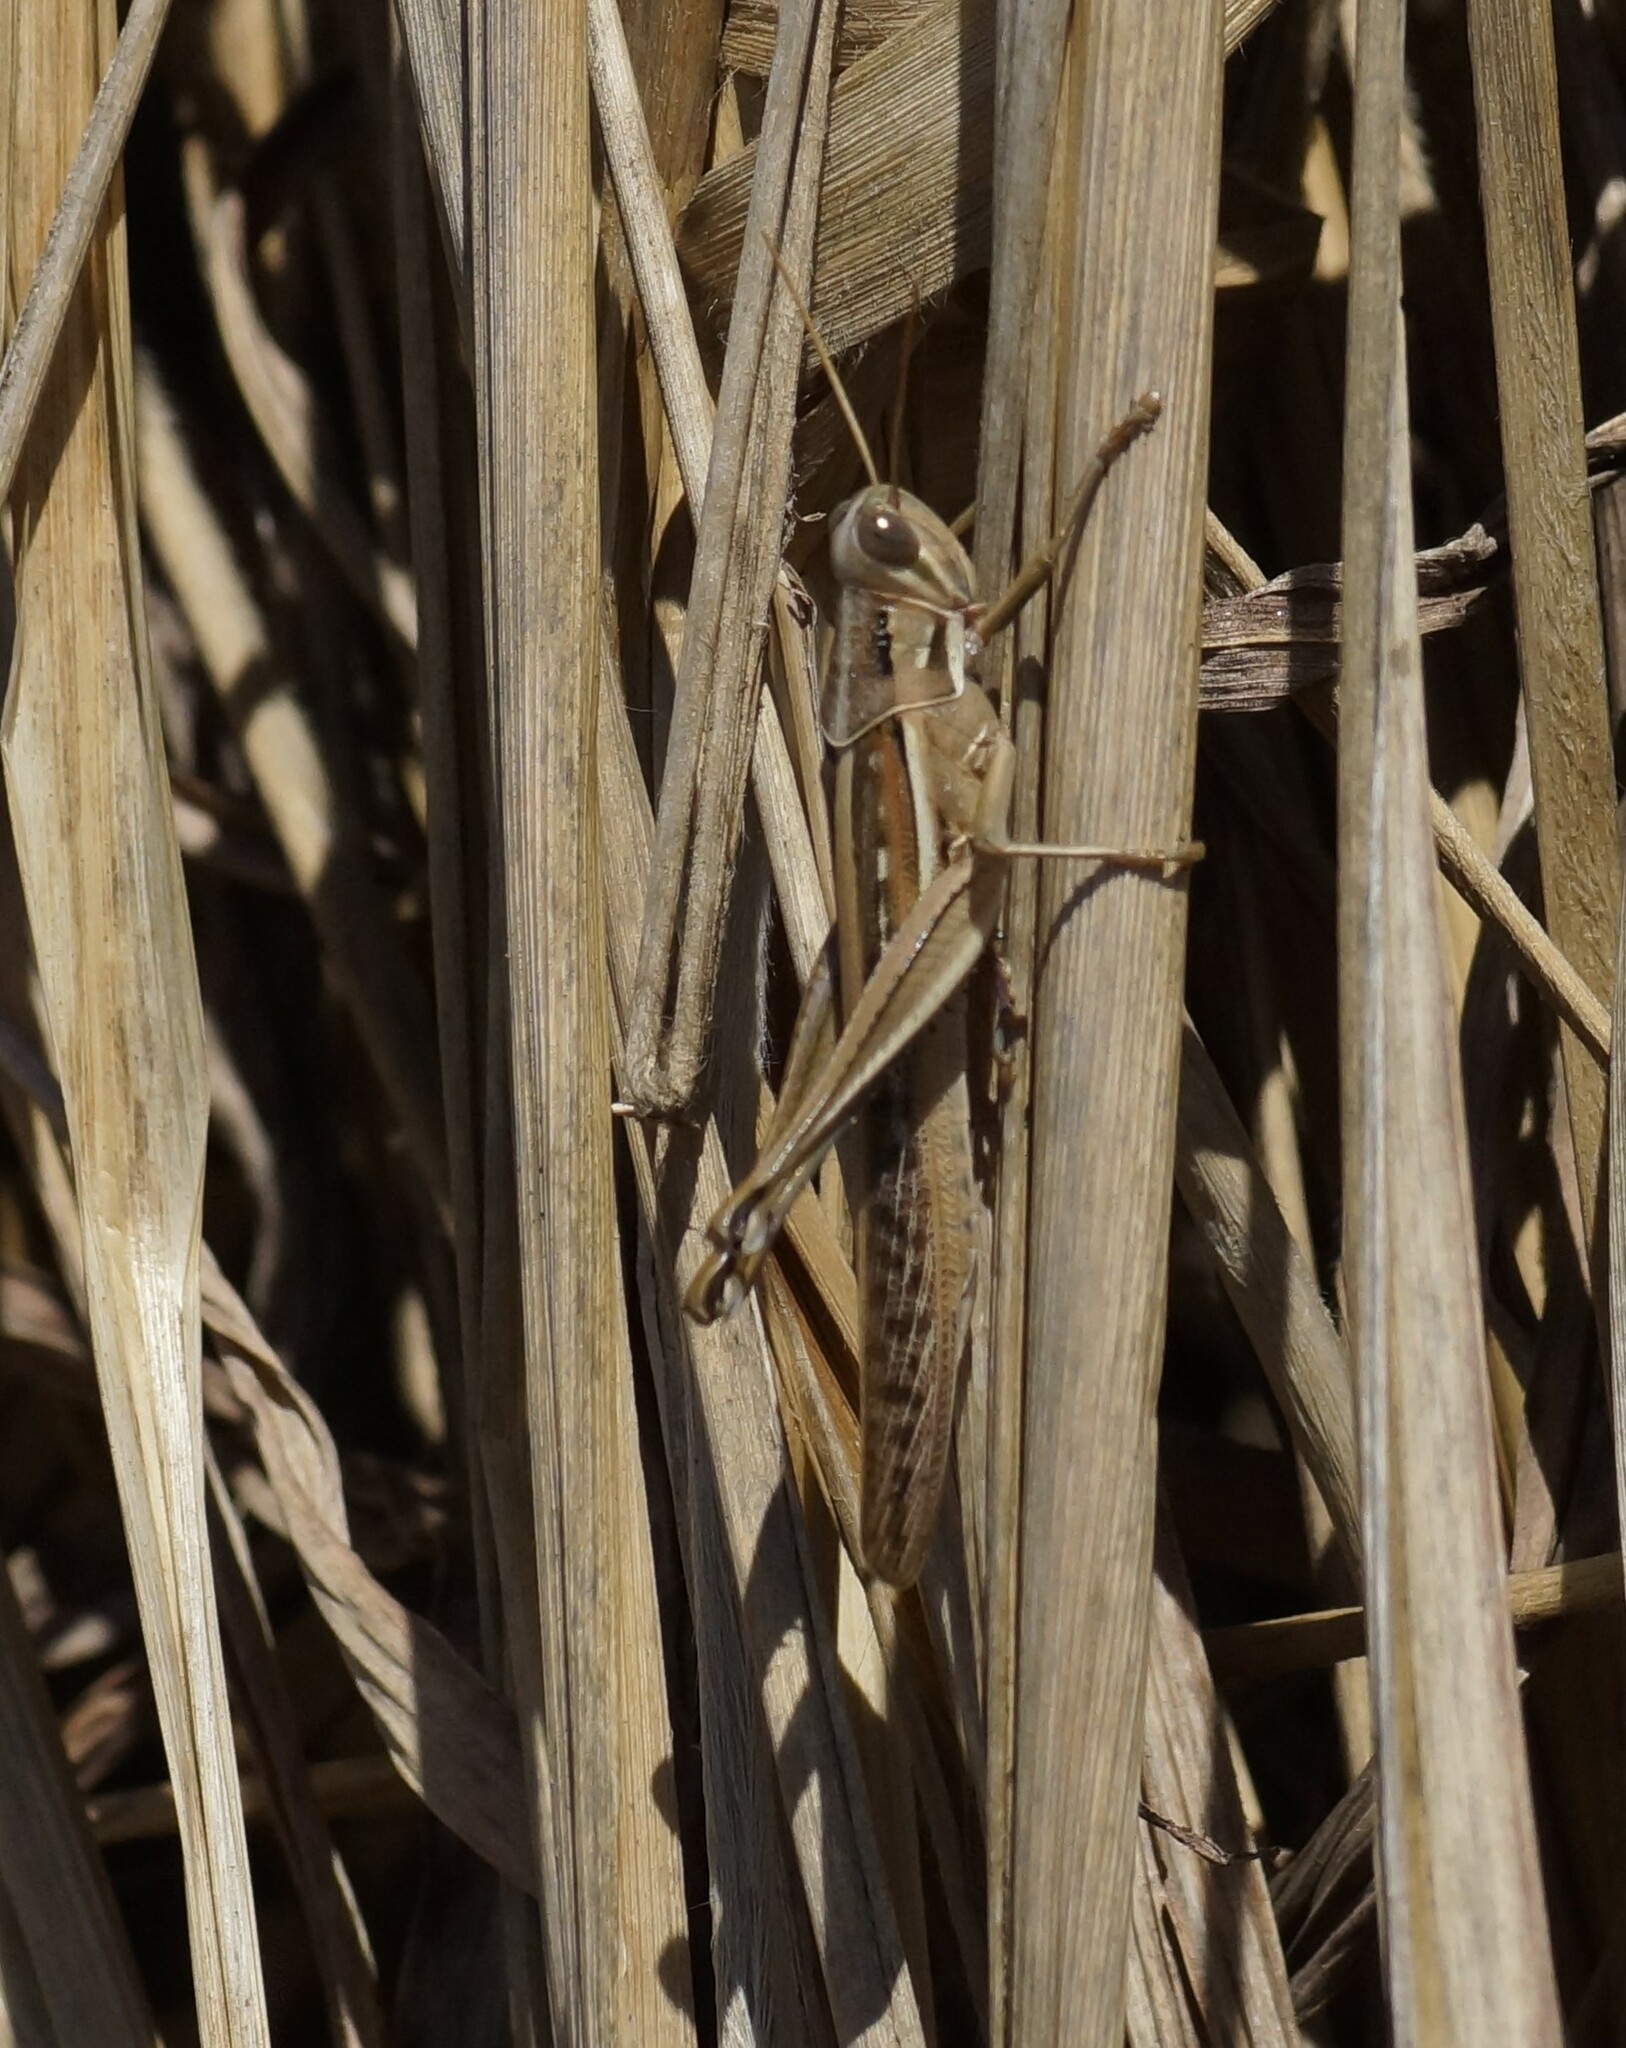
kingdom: Animalia
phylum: Arthropoda
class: Insecta
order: Orthoptera
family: Acrididae
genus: Austracris
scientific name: Austracris guttulosa
